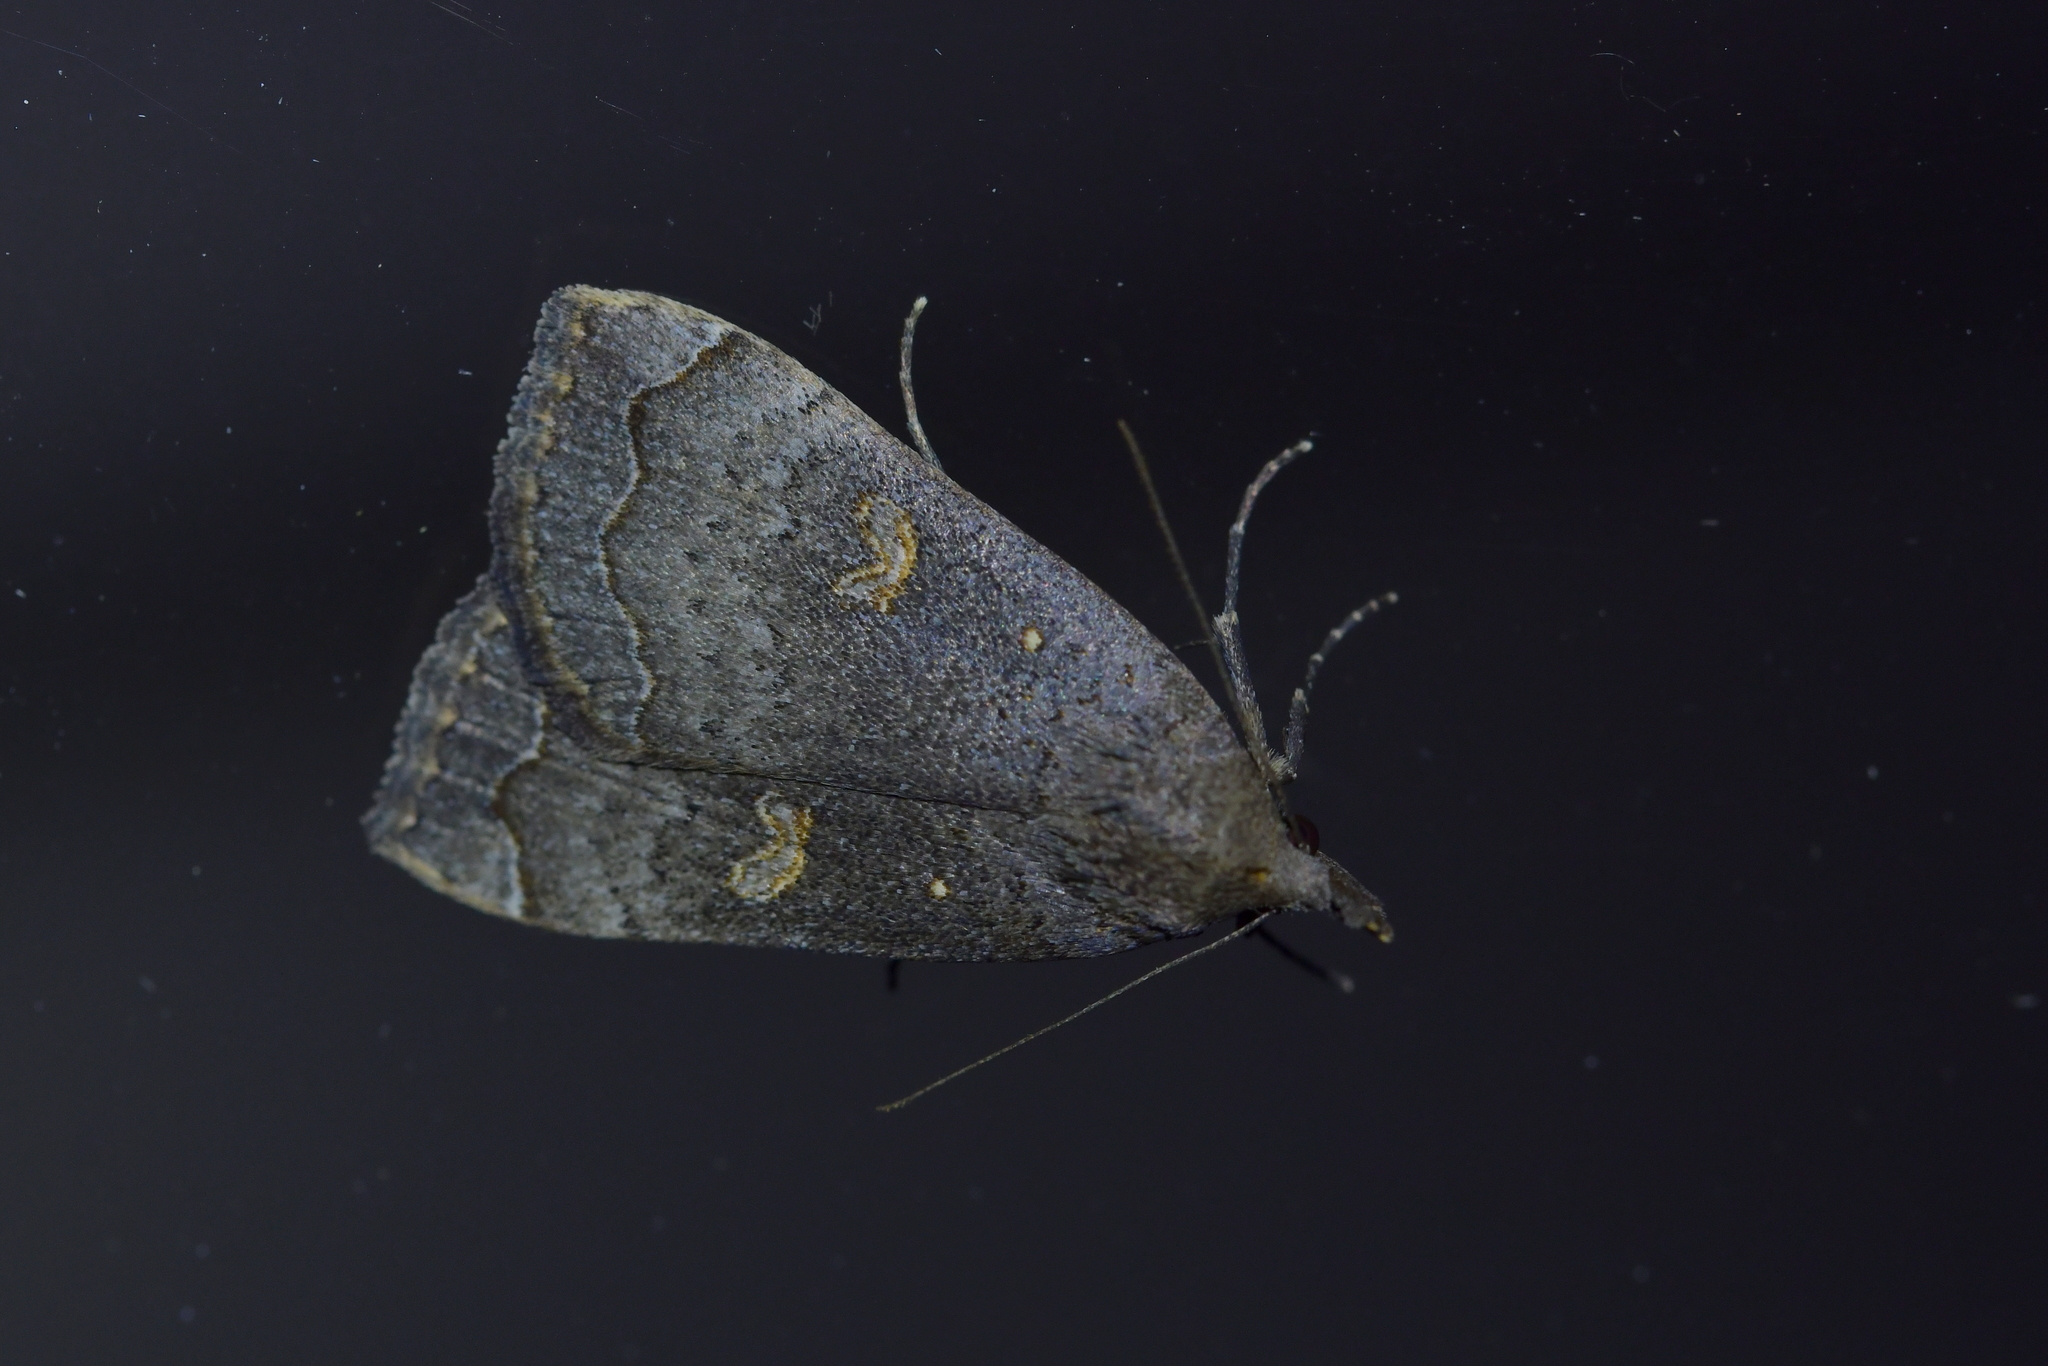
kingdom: Animalia
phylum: Arthropoda
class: Insecta
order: Lepidoptera
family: Erebidae
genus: Rhapsa
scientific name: Rhapsa scotosialis
